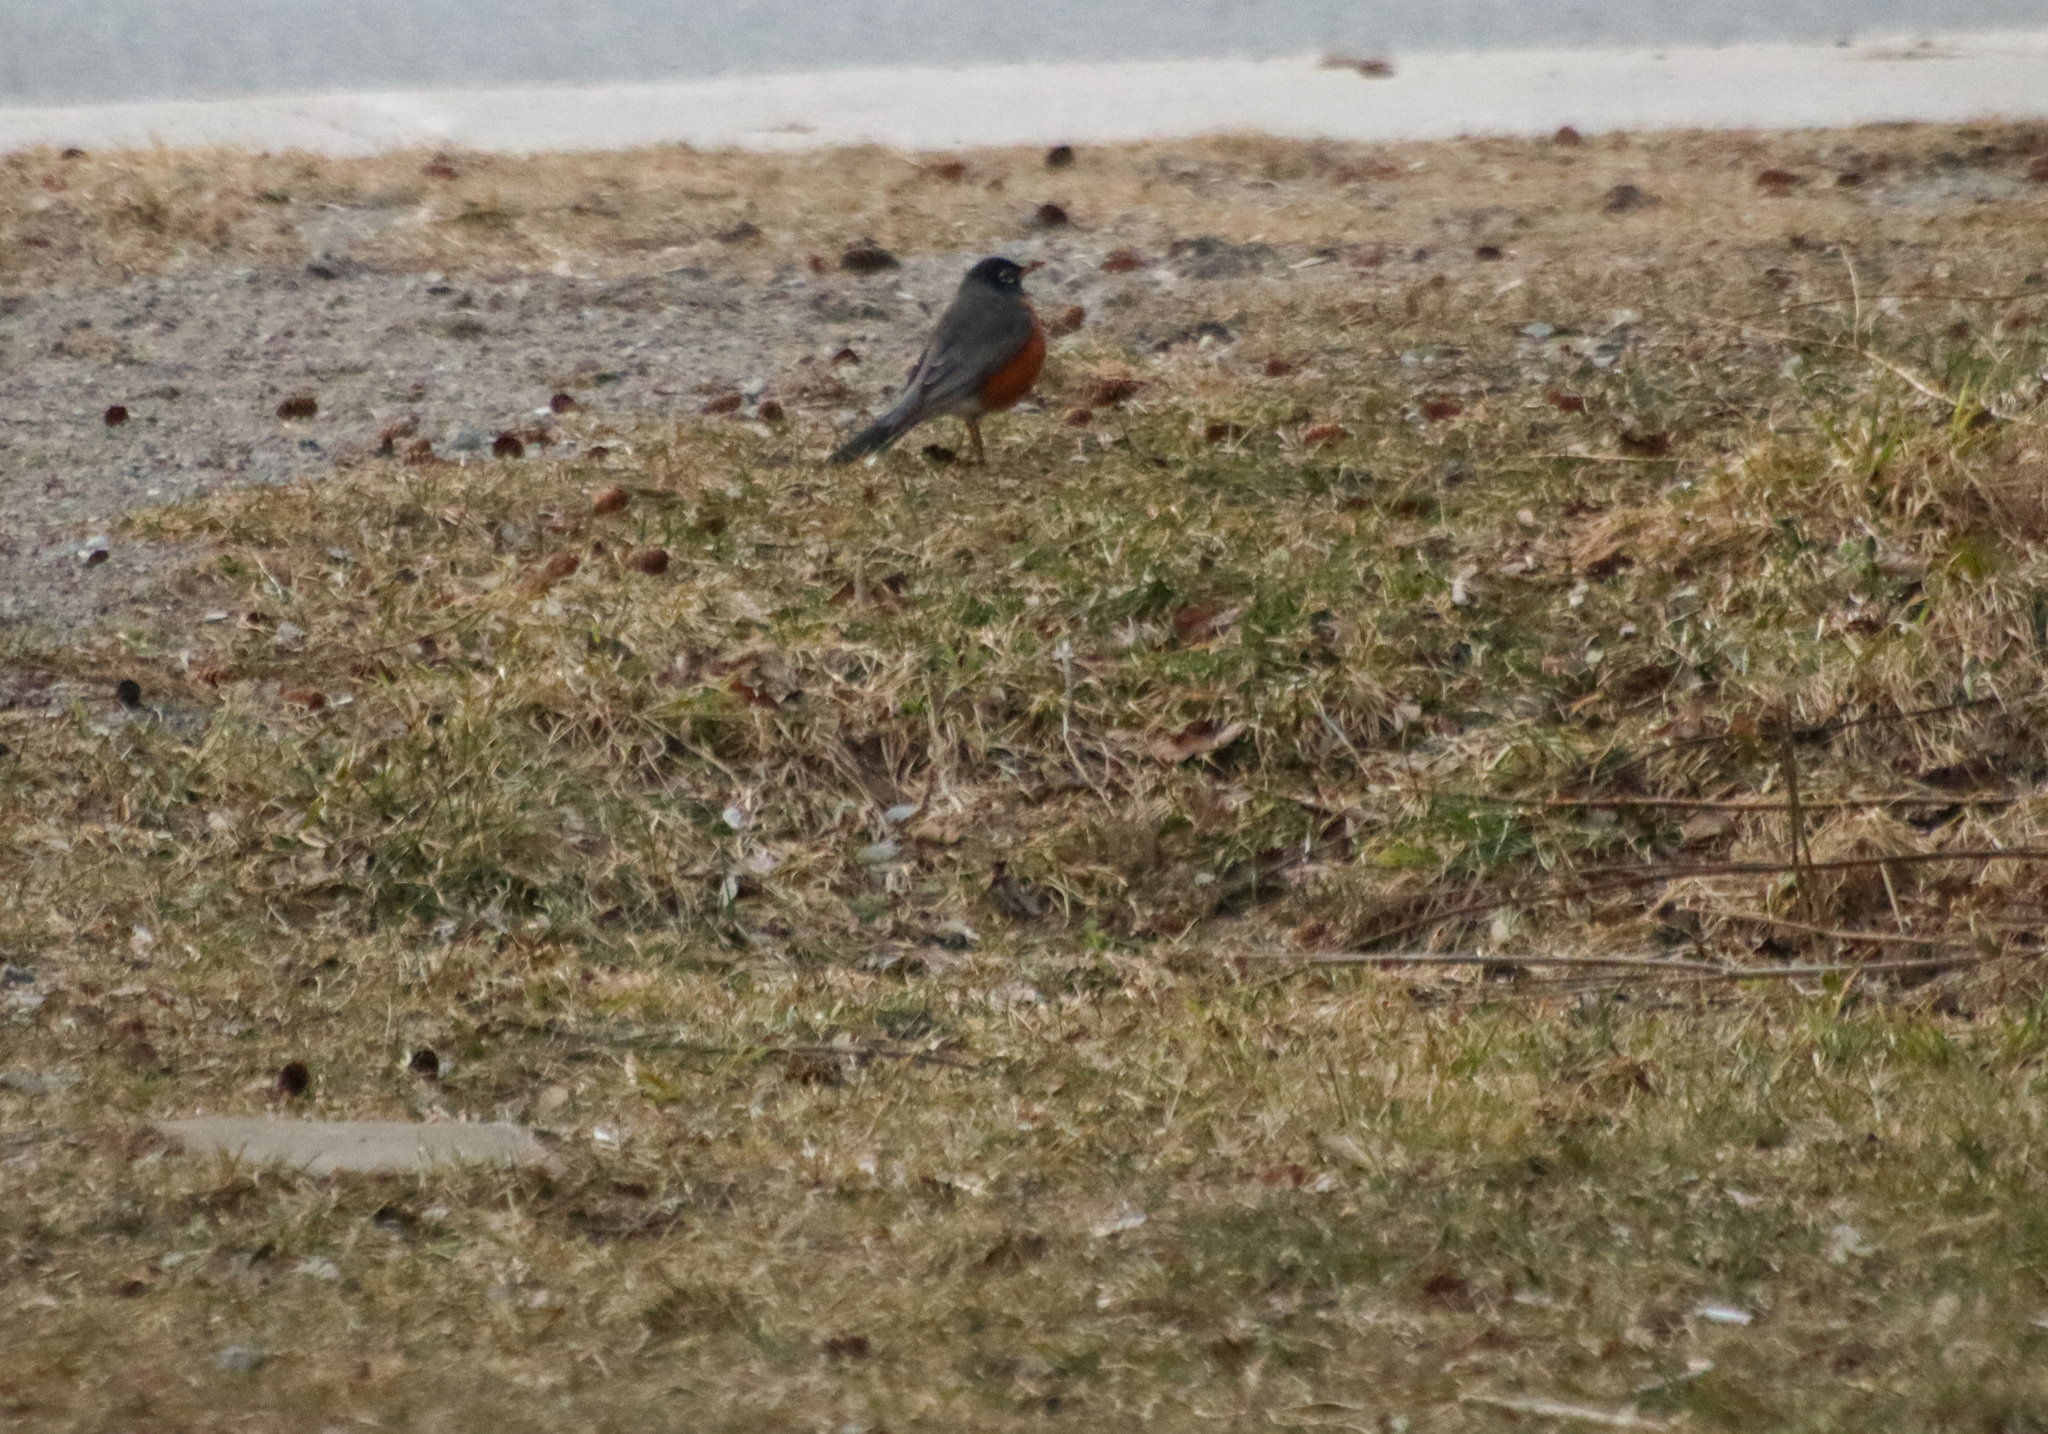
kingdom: Animalia
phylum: Chordata
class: Aves
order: Passeriformes
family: Turdidae
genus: Turdus
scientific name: Turdus migratorius
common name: American robin
